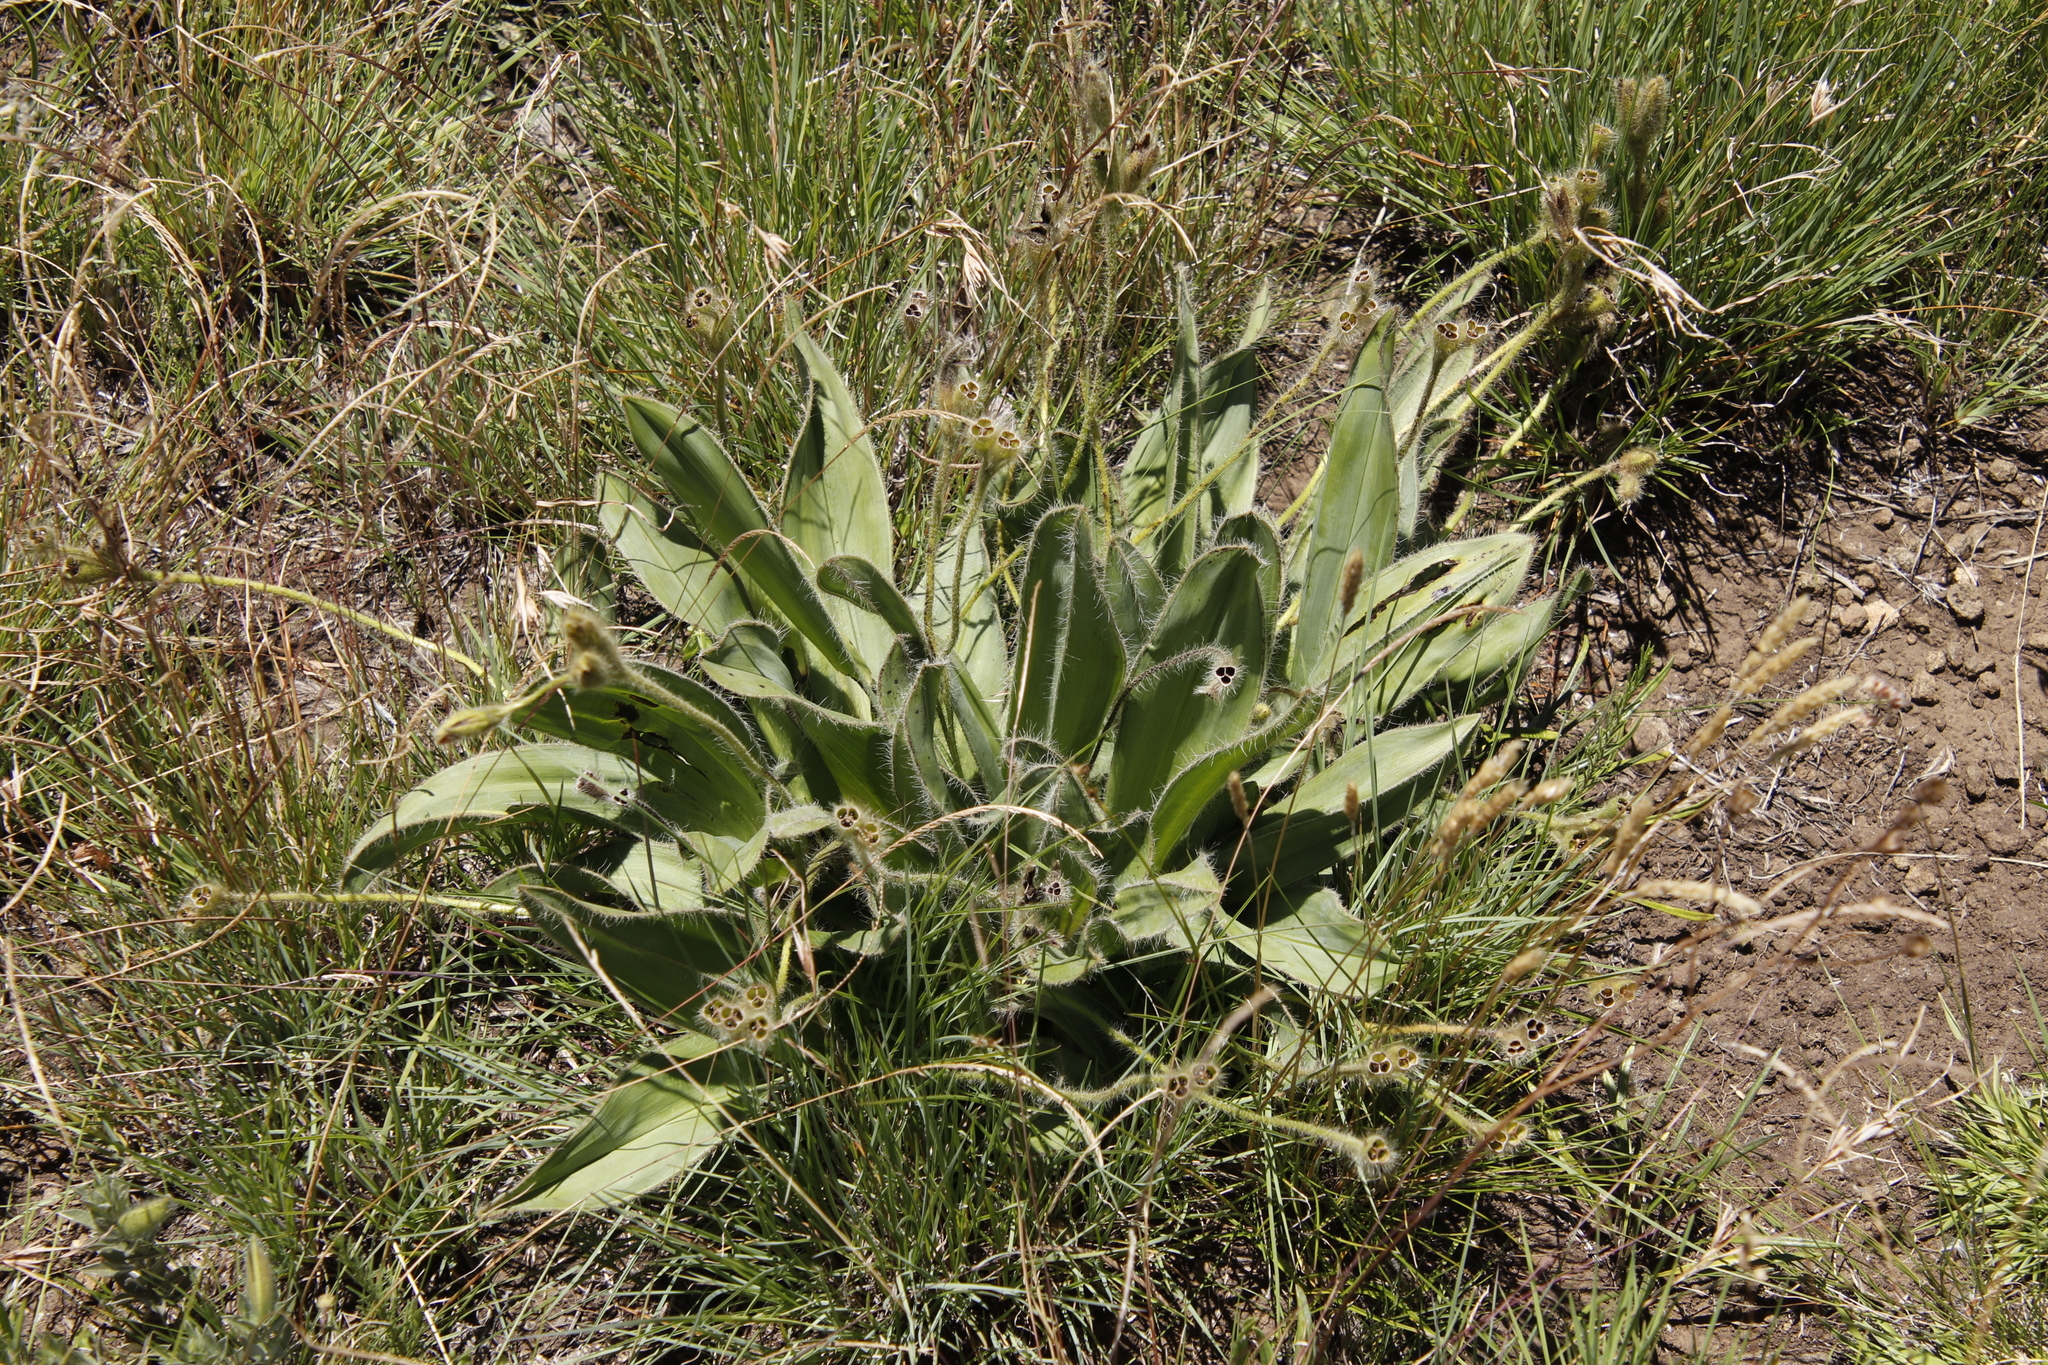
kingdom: Plantae
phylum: Tracheophyta
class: Liliopsida
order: Asparagales
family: Hypoxidaceae
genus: Hypoxis
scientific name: Hypoxis costata
